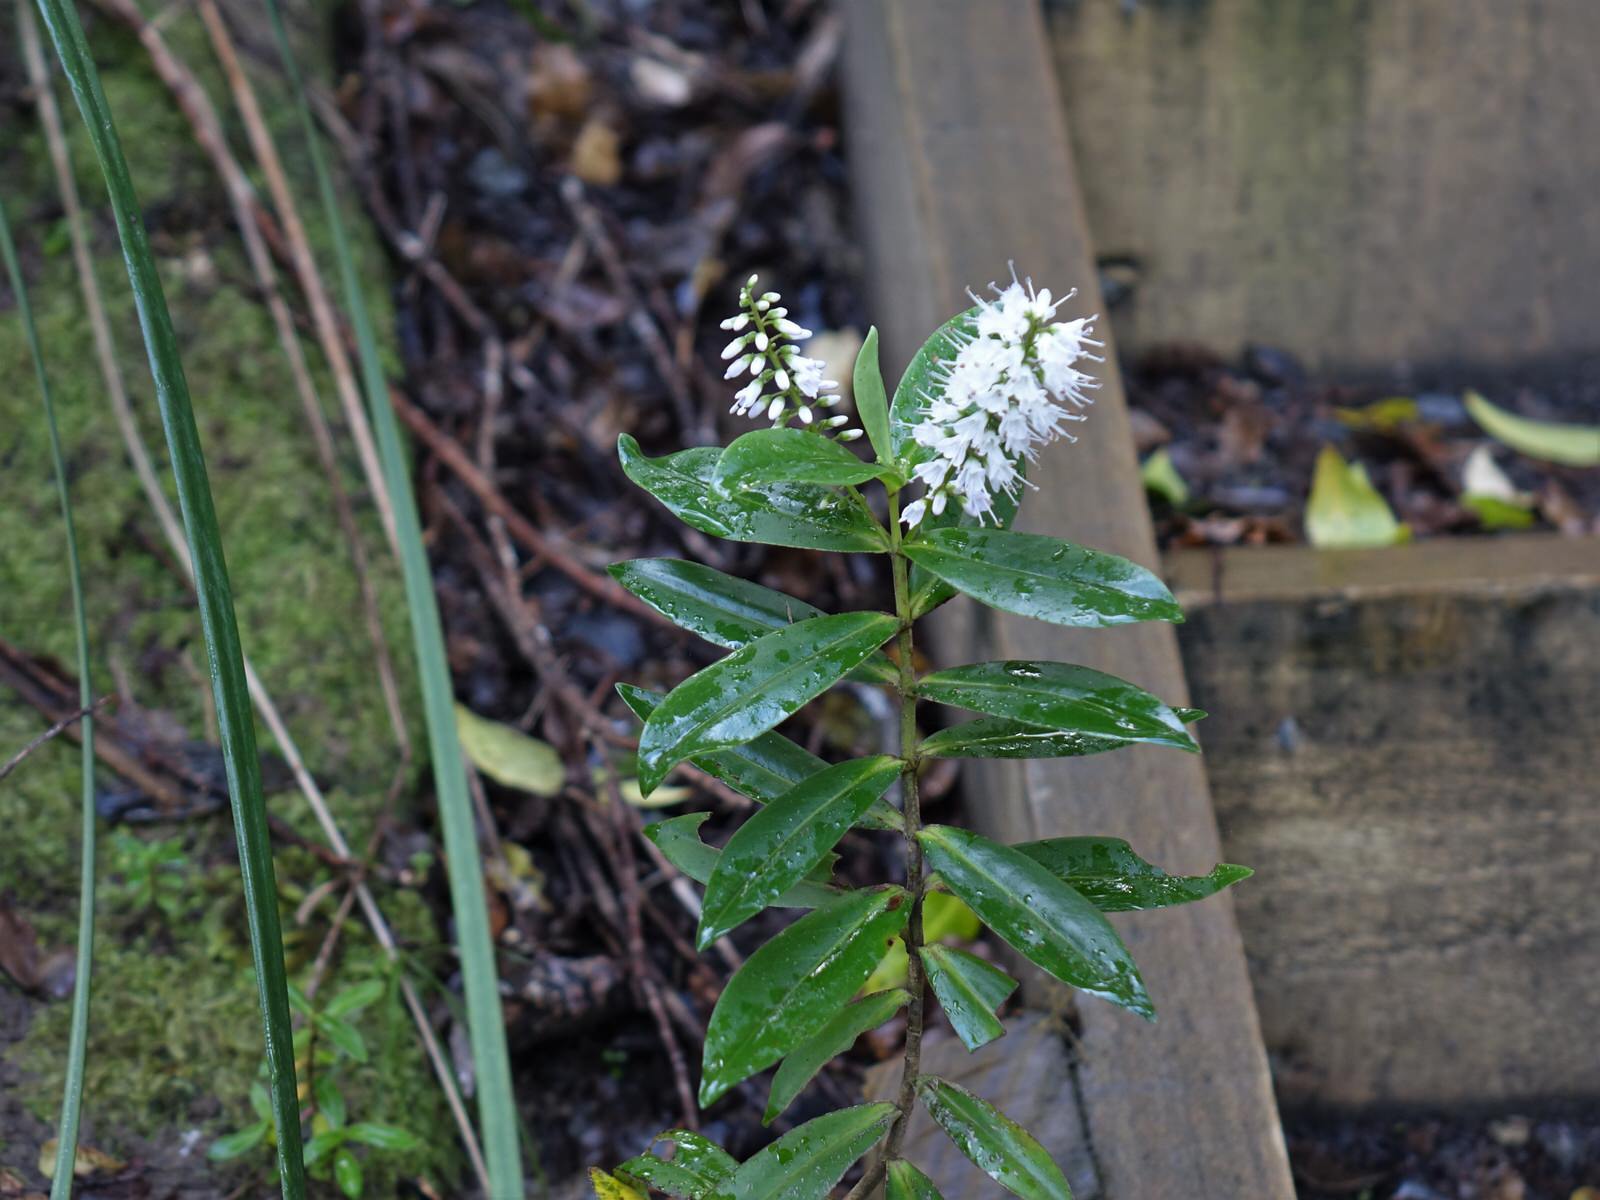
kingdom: Plantae
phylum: Tracheophyta
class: Magnoliopsida
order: Lamiales
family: Plantaginaceae
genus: Veronica
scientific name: Veronica macrocarpa
